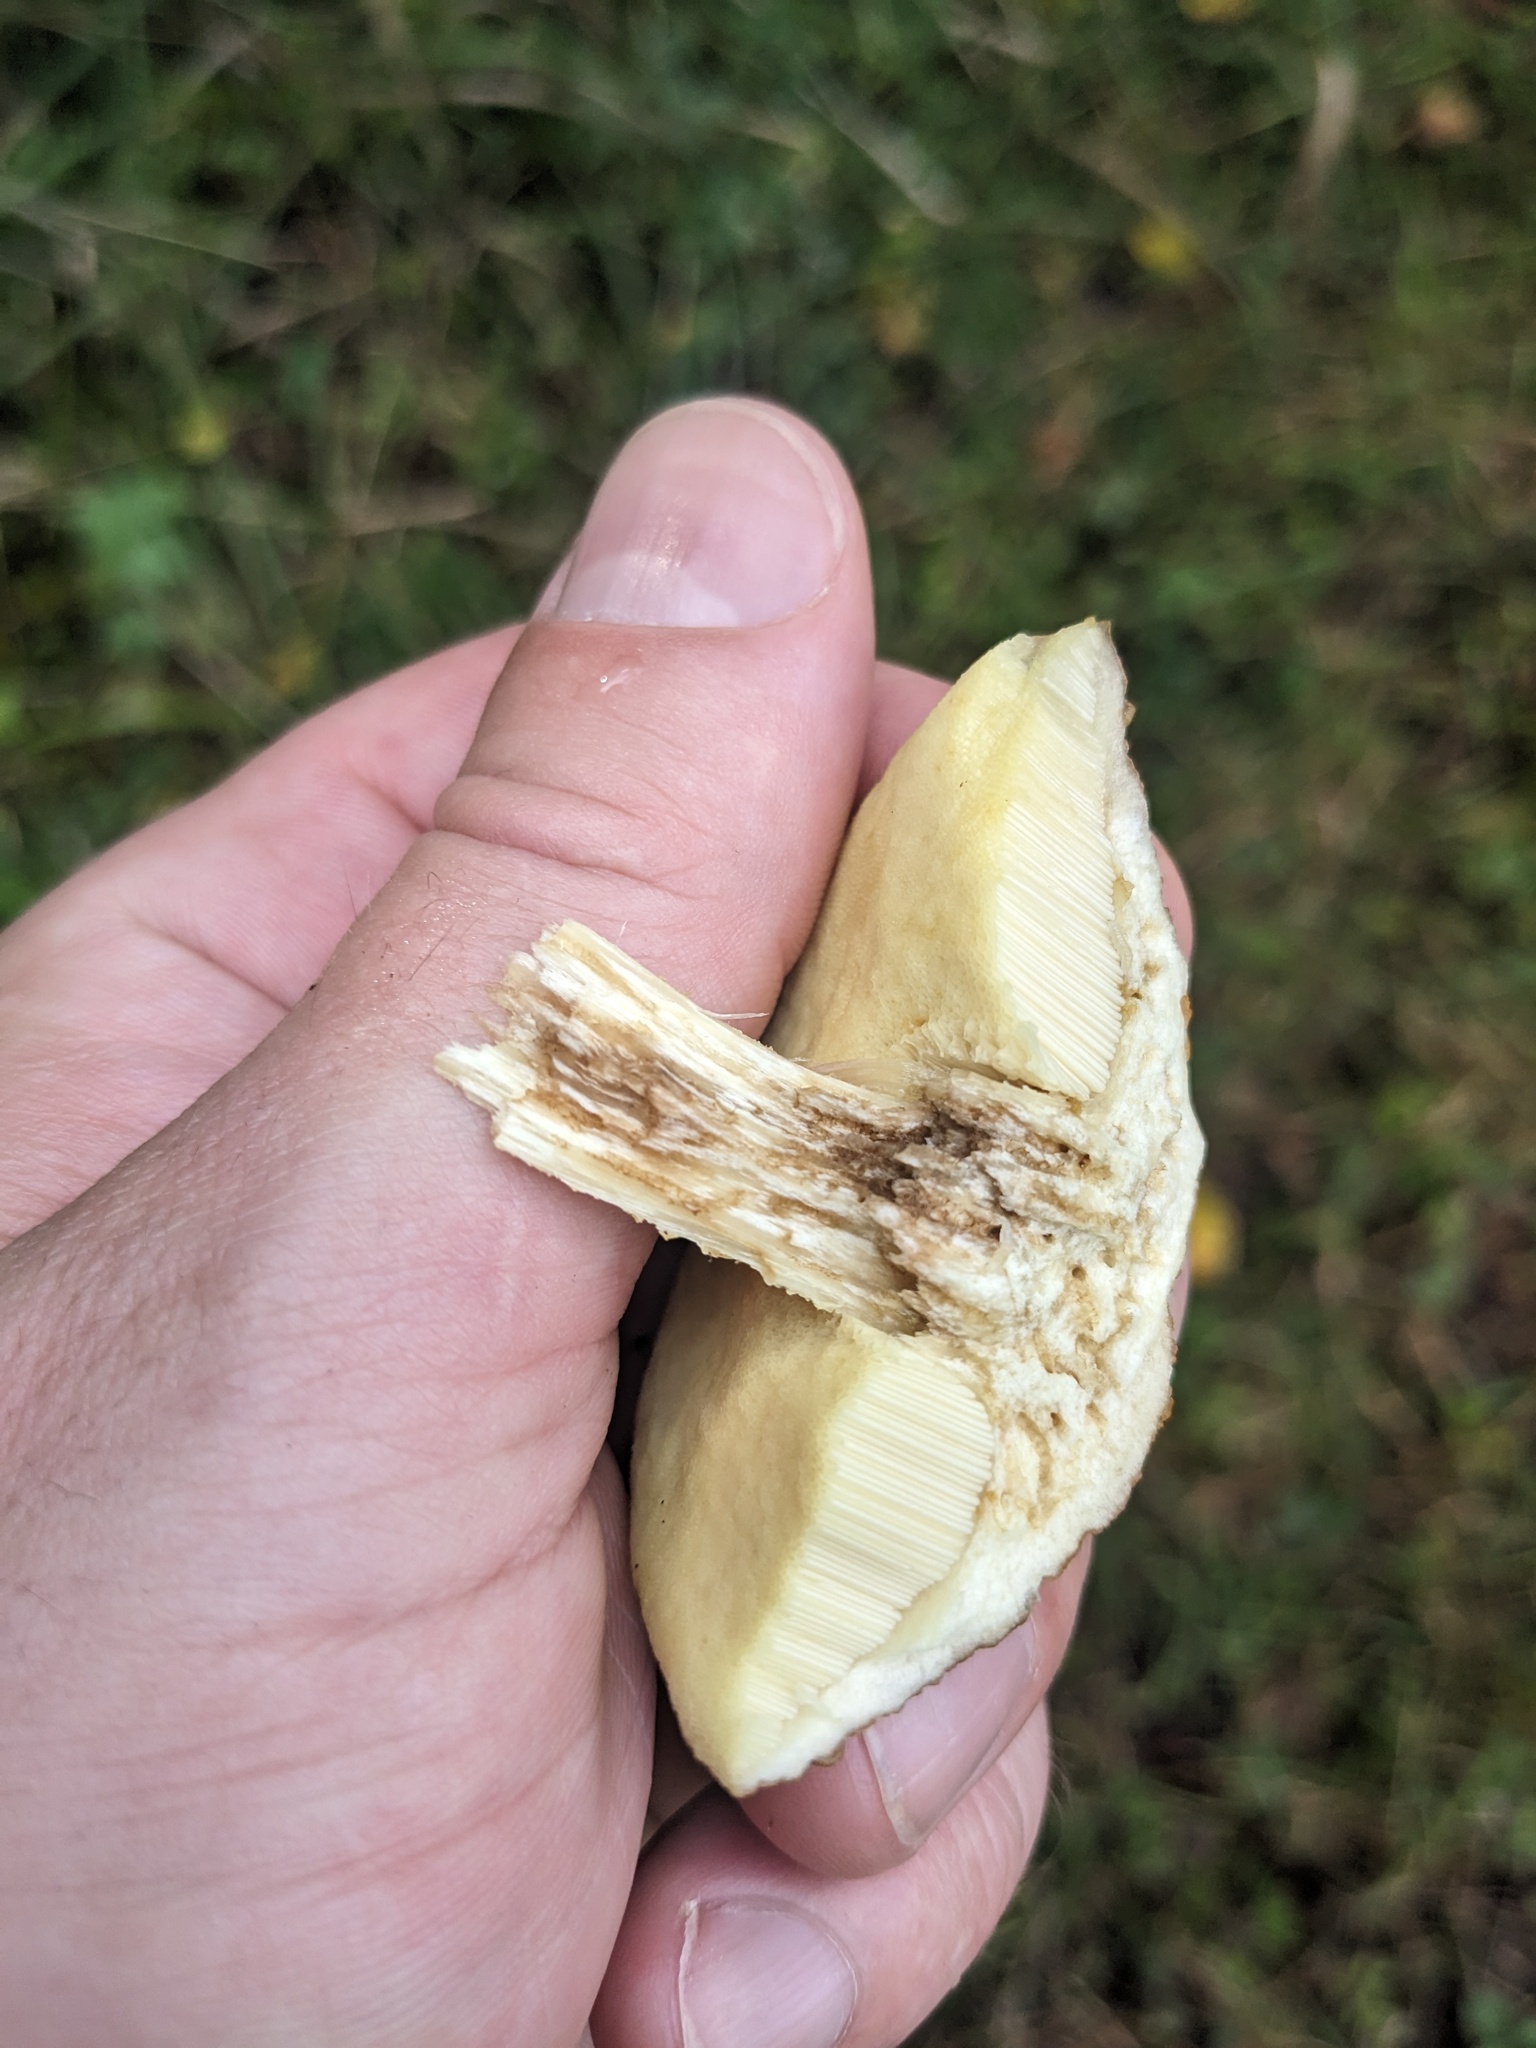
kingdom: Fungi
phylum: Basidiomycota
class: Agaricomycetes
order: Boletales
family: Boletaceae
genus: Leccinellum
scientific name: Leccinellum rugosiceps
